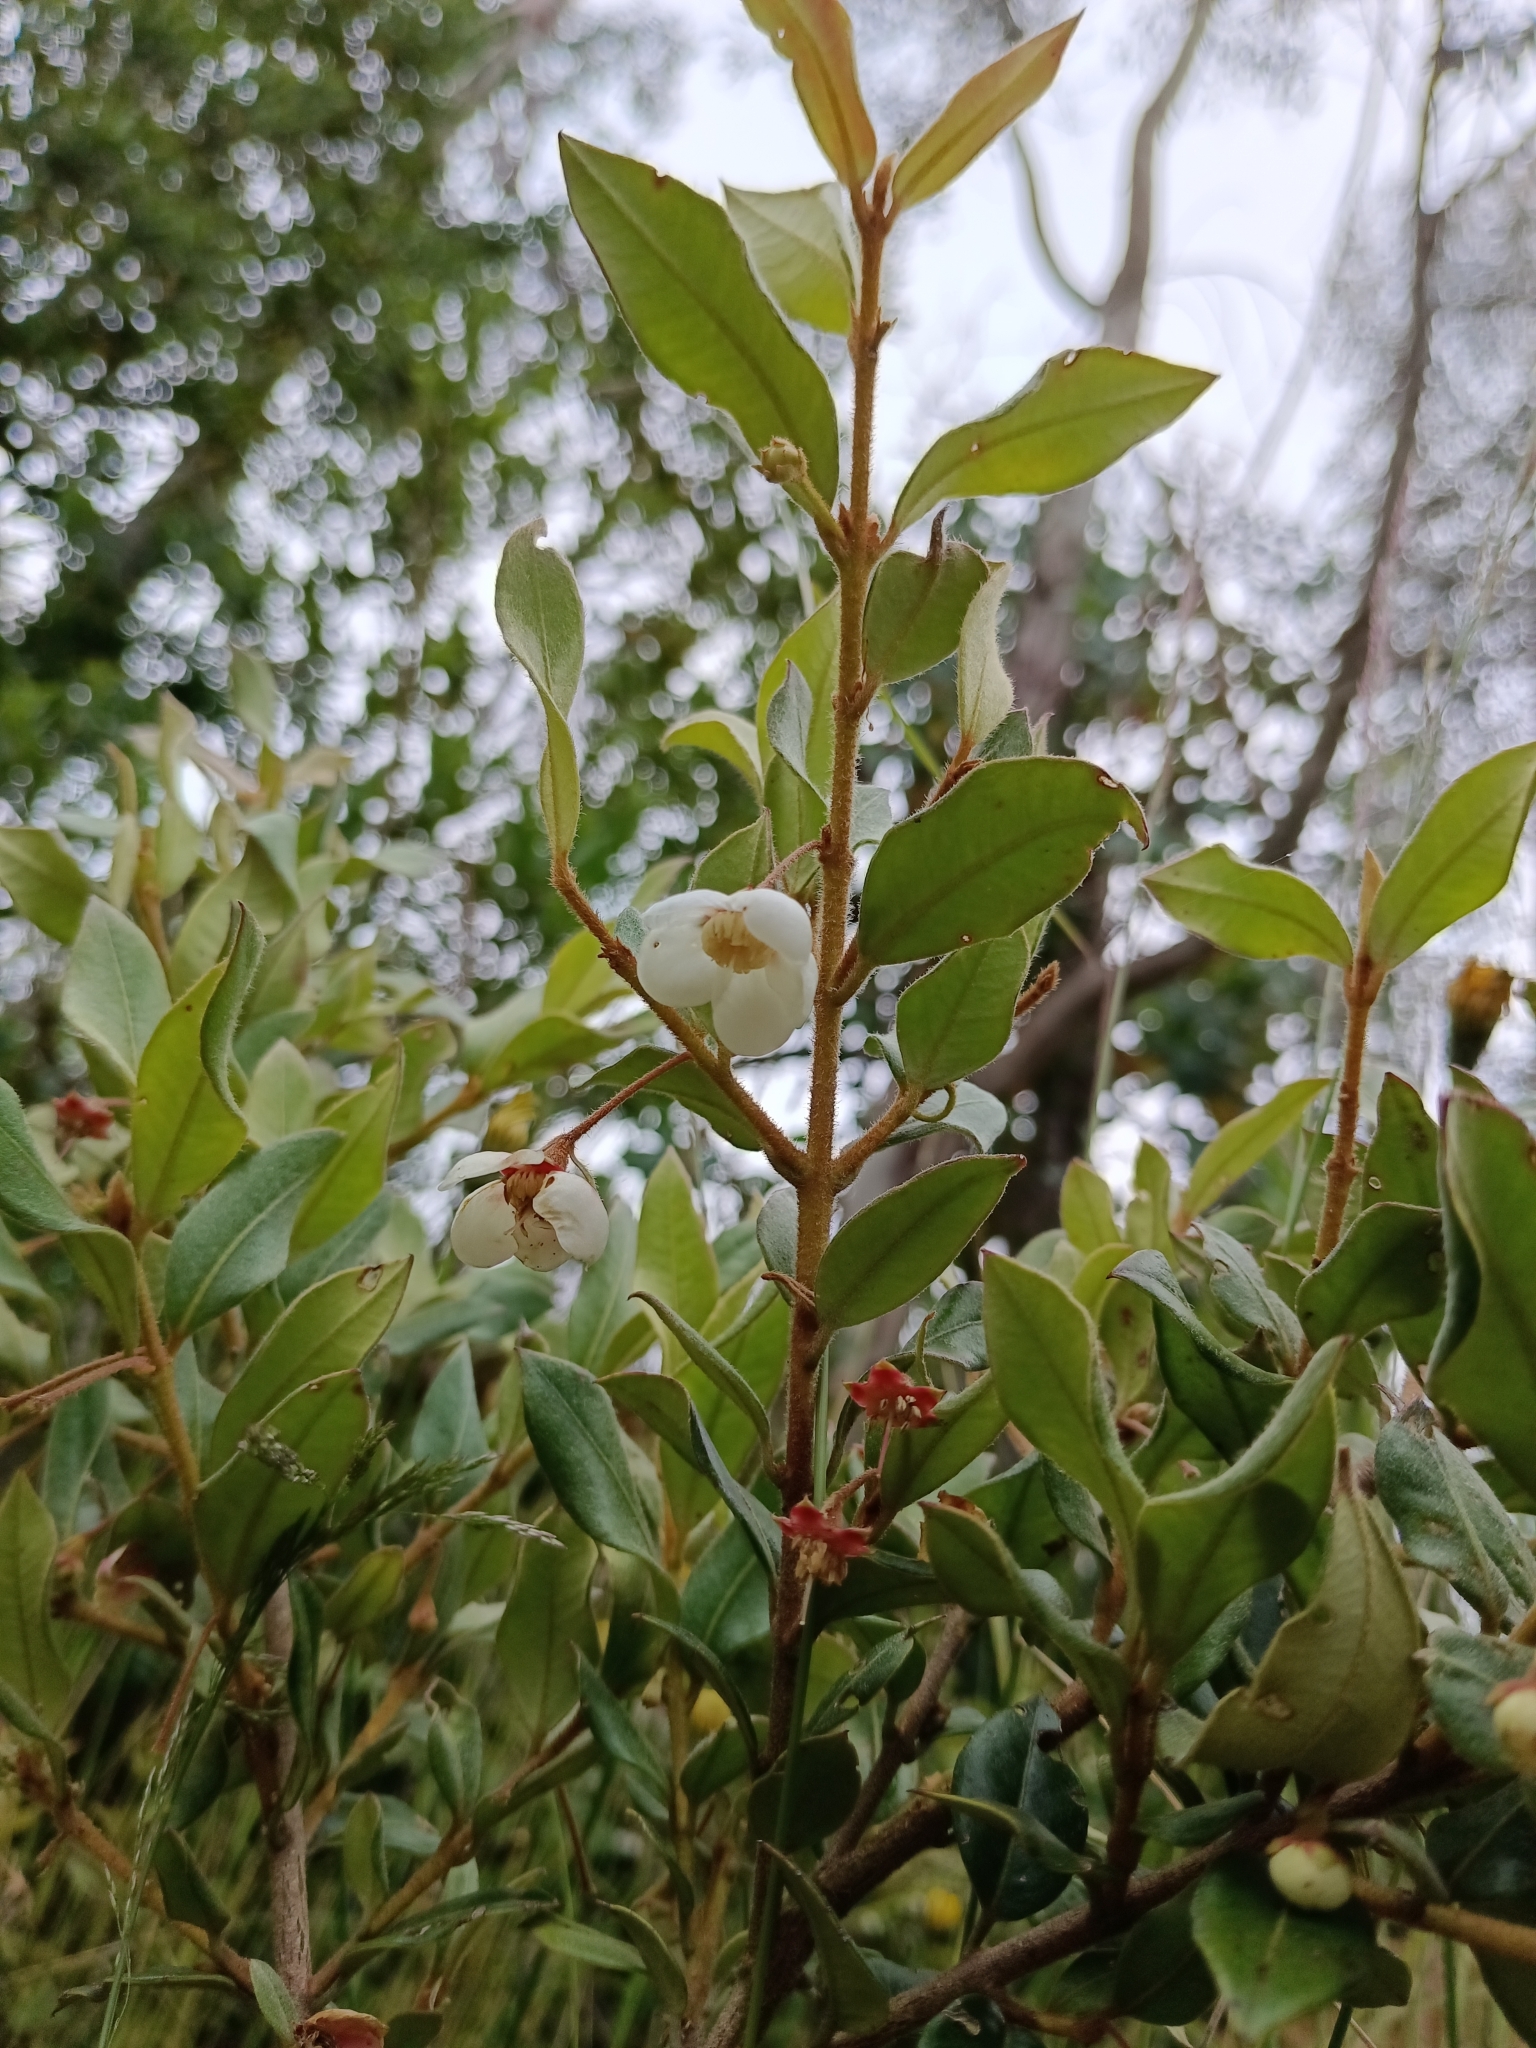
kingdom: Plantae
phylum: Tracheophyta
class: Magnoliopsida
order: Myrtales
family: Myrtaceae
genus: Ugni
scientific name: Ugni candollei
